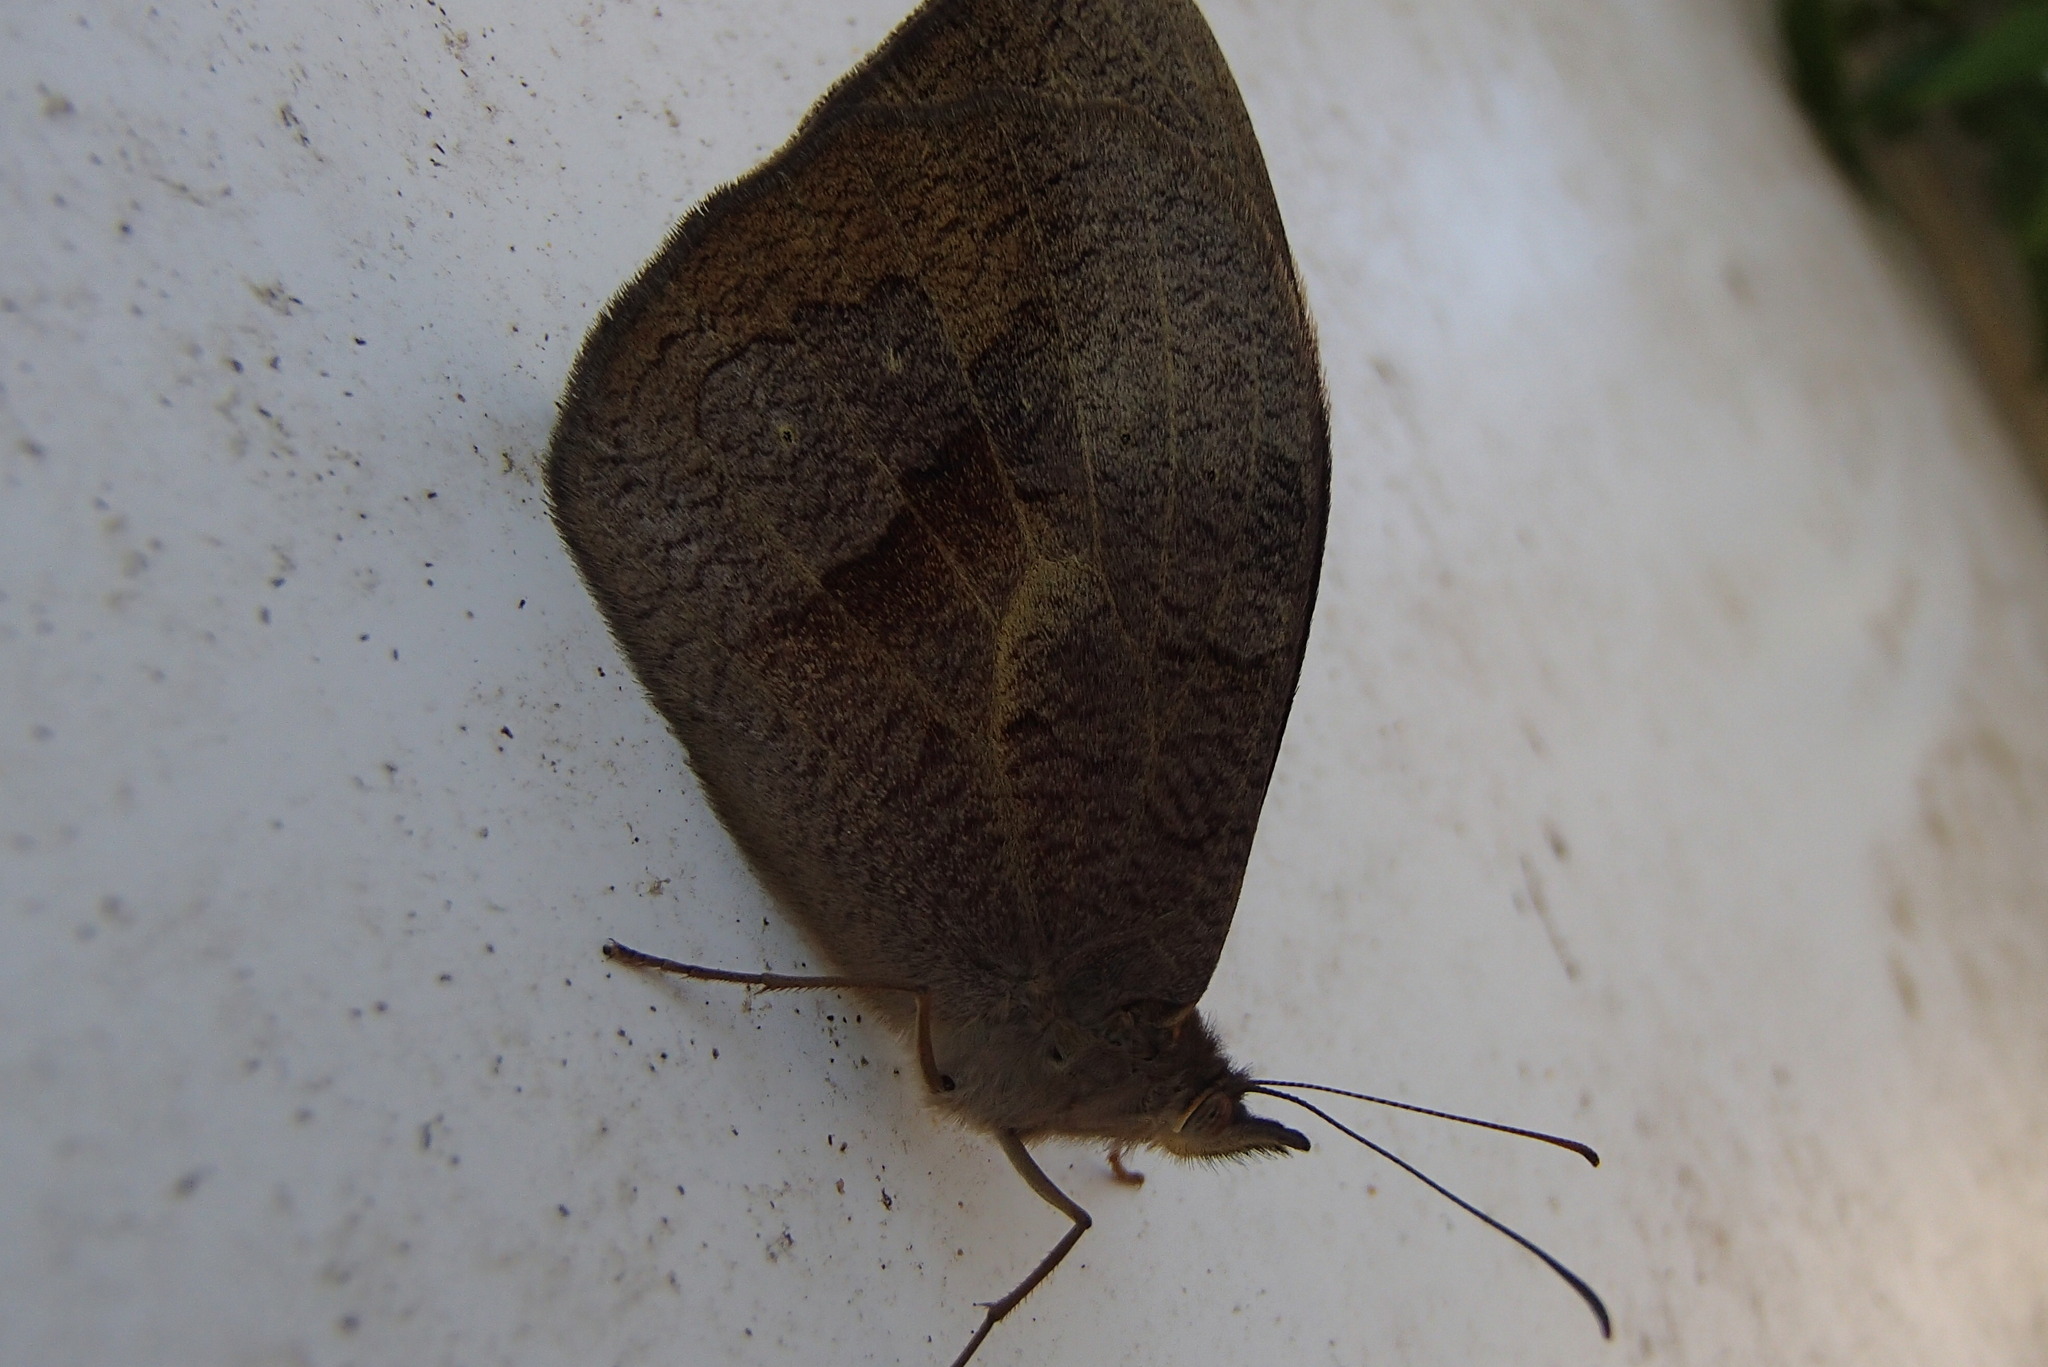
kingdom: Animalia
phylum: Arthropoda
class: Insecta
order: Lepidoptera
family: Nymphalidae
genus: Heteronympha
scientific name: Heteronympha merope
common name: Common brown
